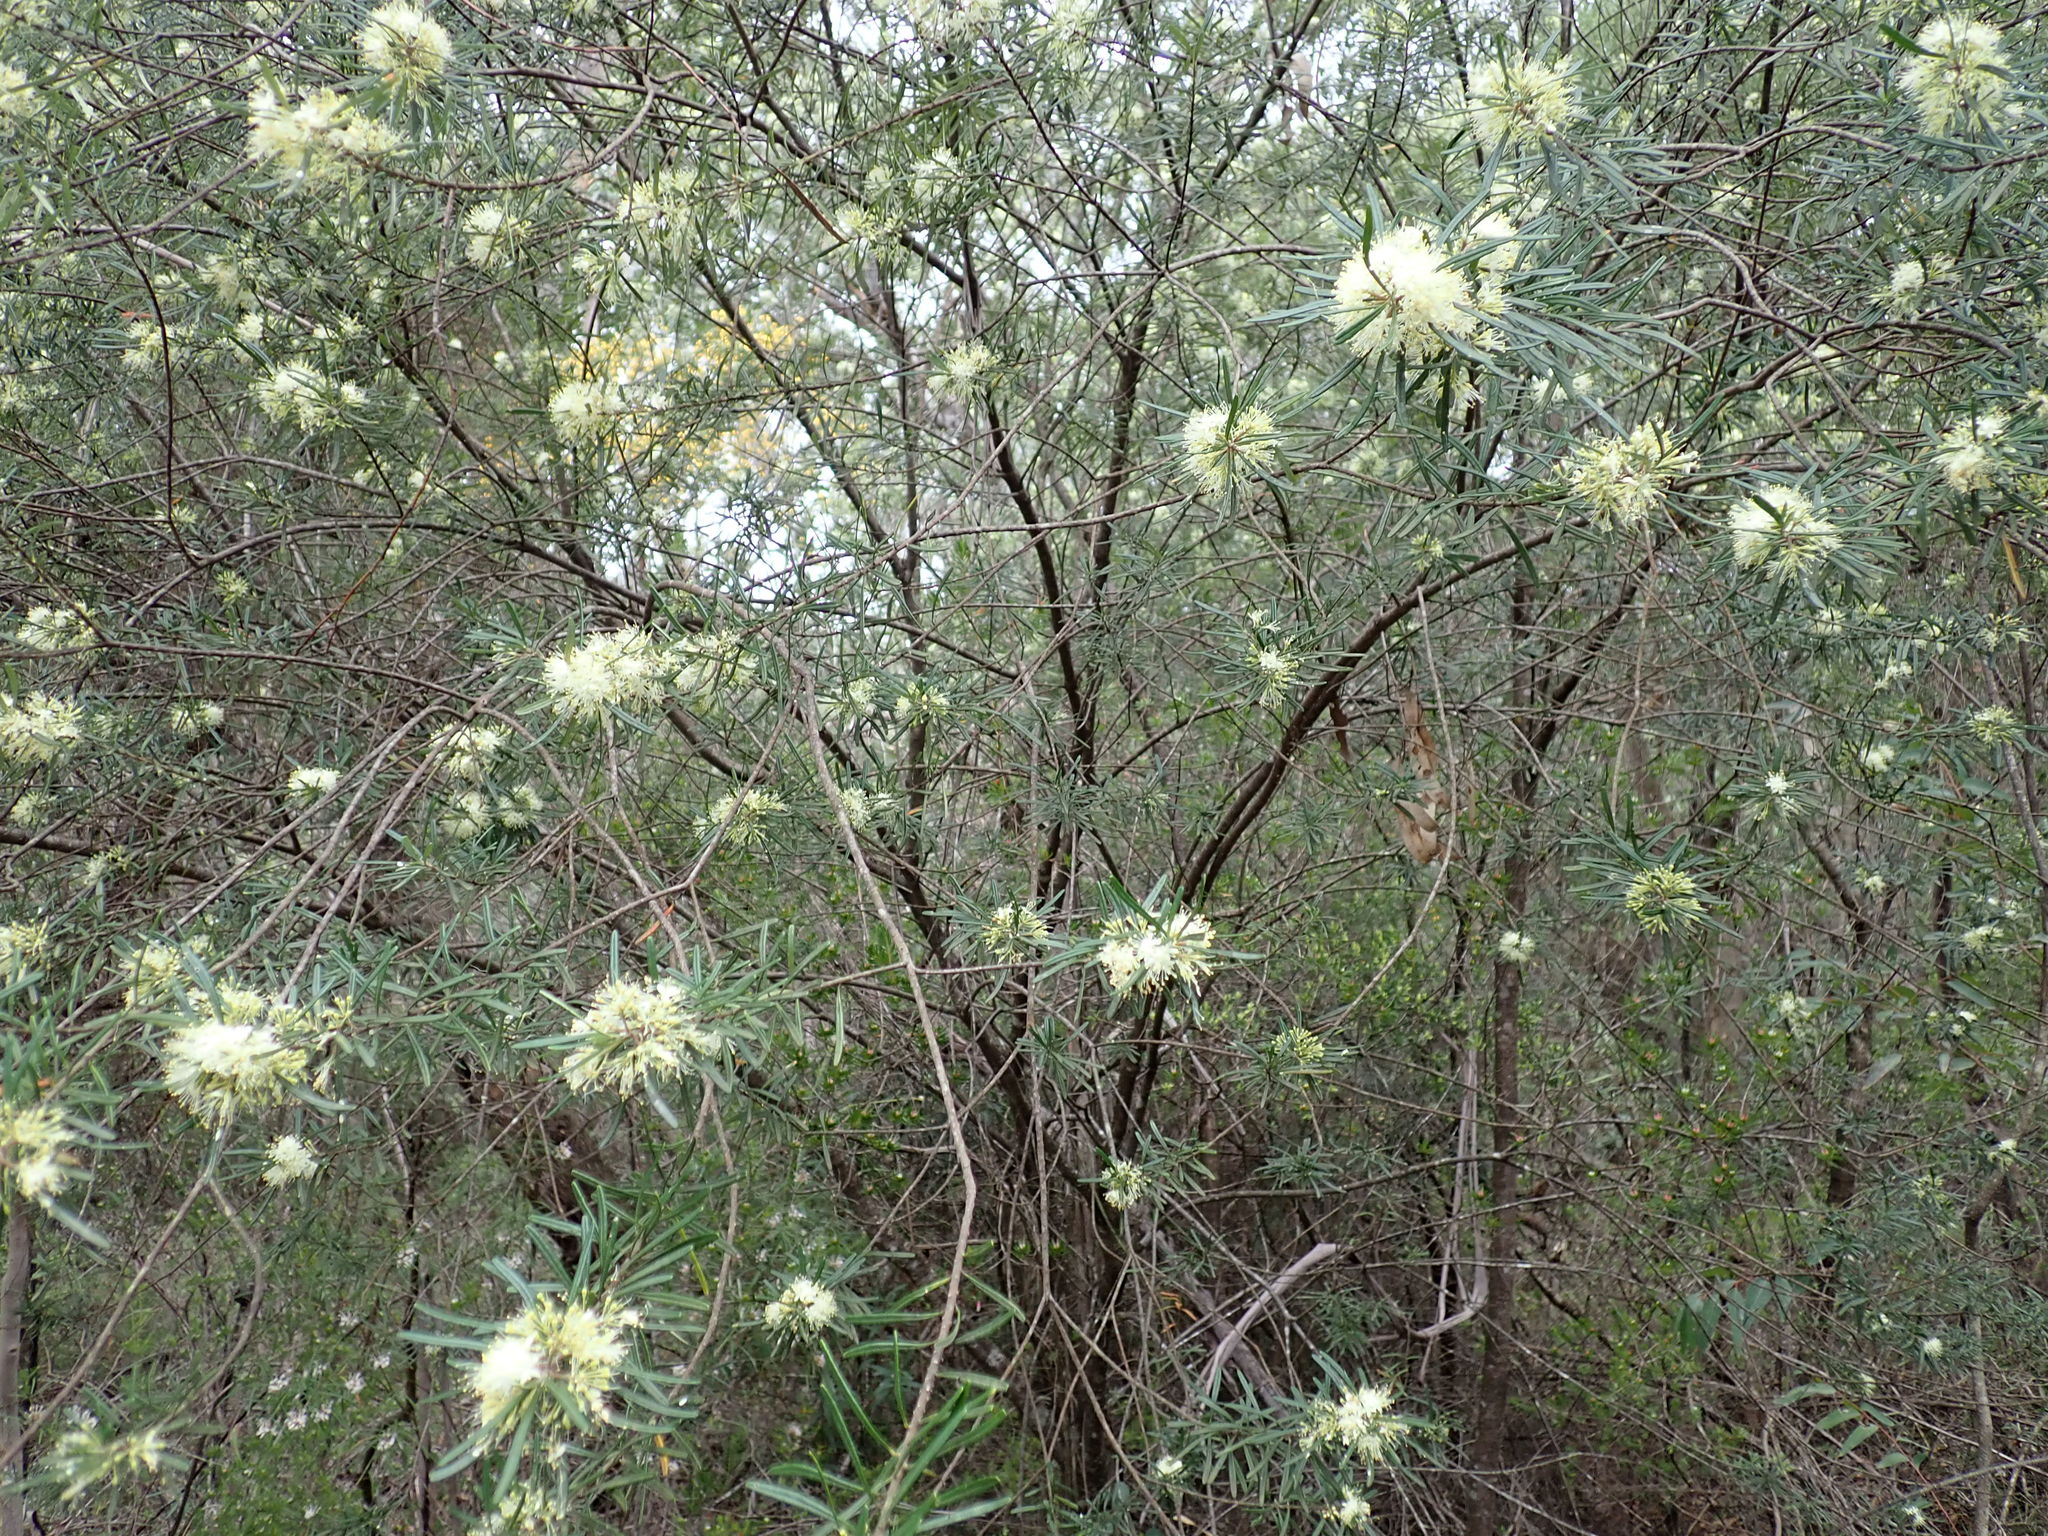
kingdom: Plantae
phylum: Tracheophyta
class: Magnoliopsida
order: Sapindales
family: Rutaceae
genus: Leionema
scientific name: Leionema dentatum
